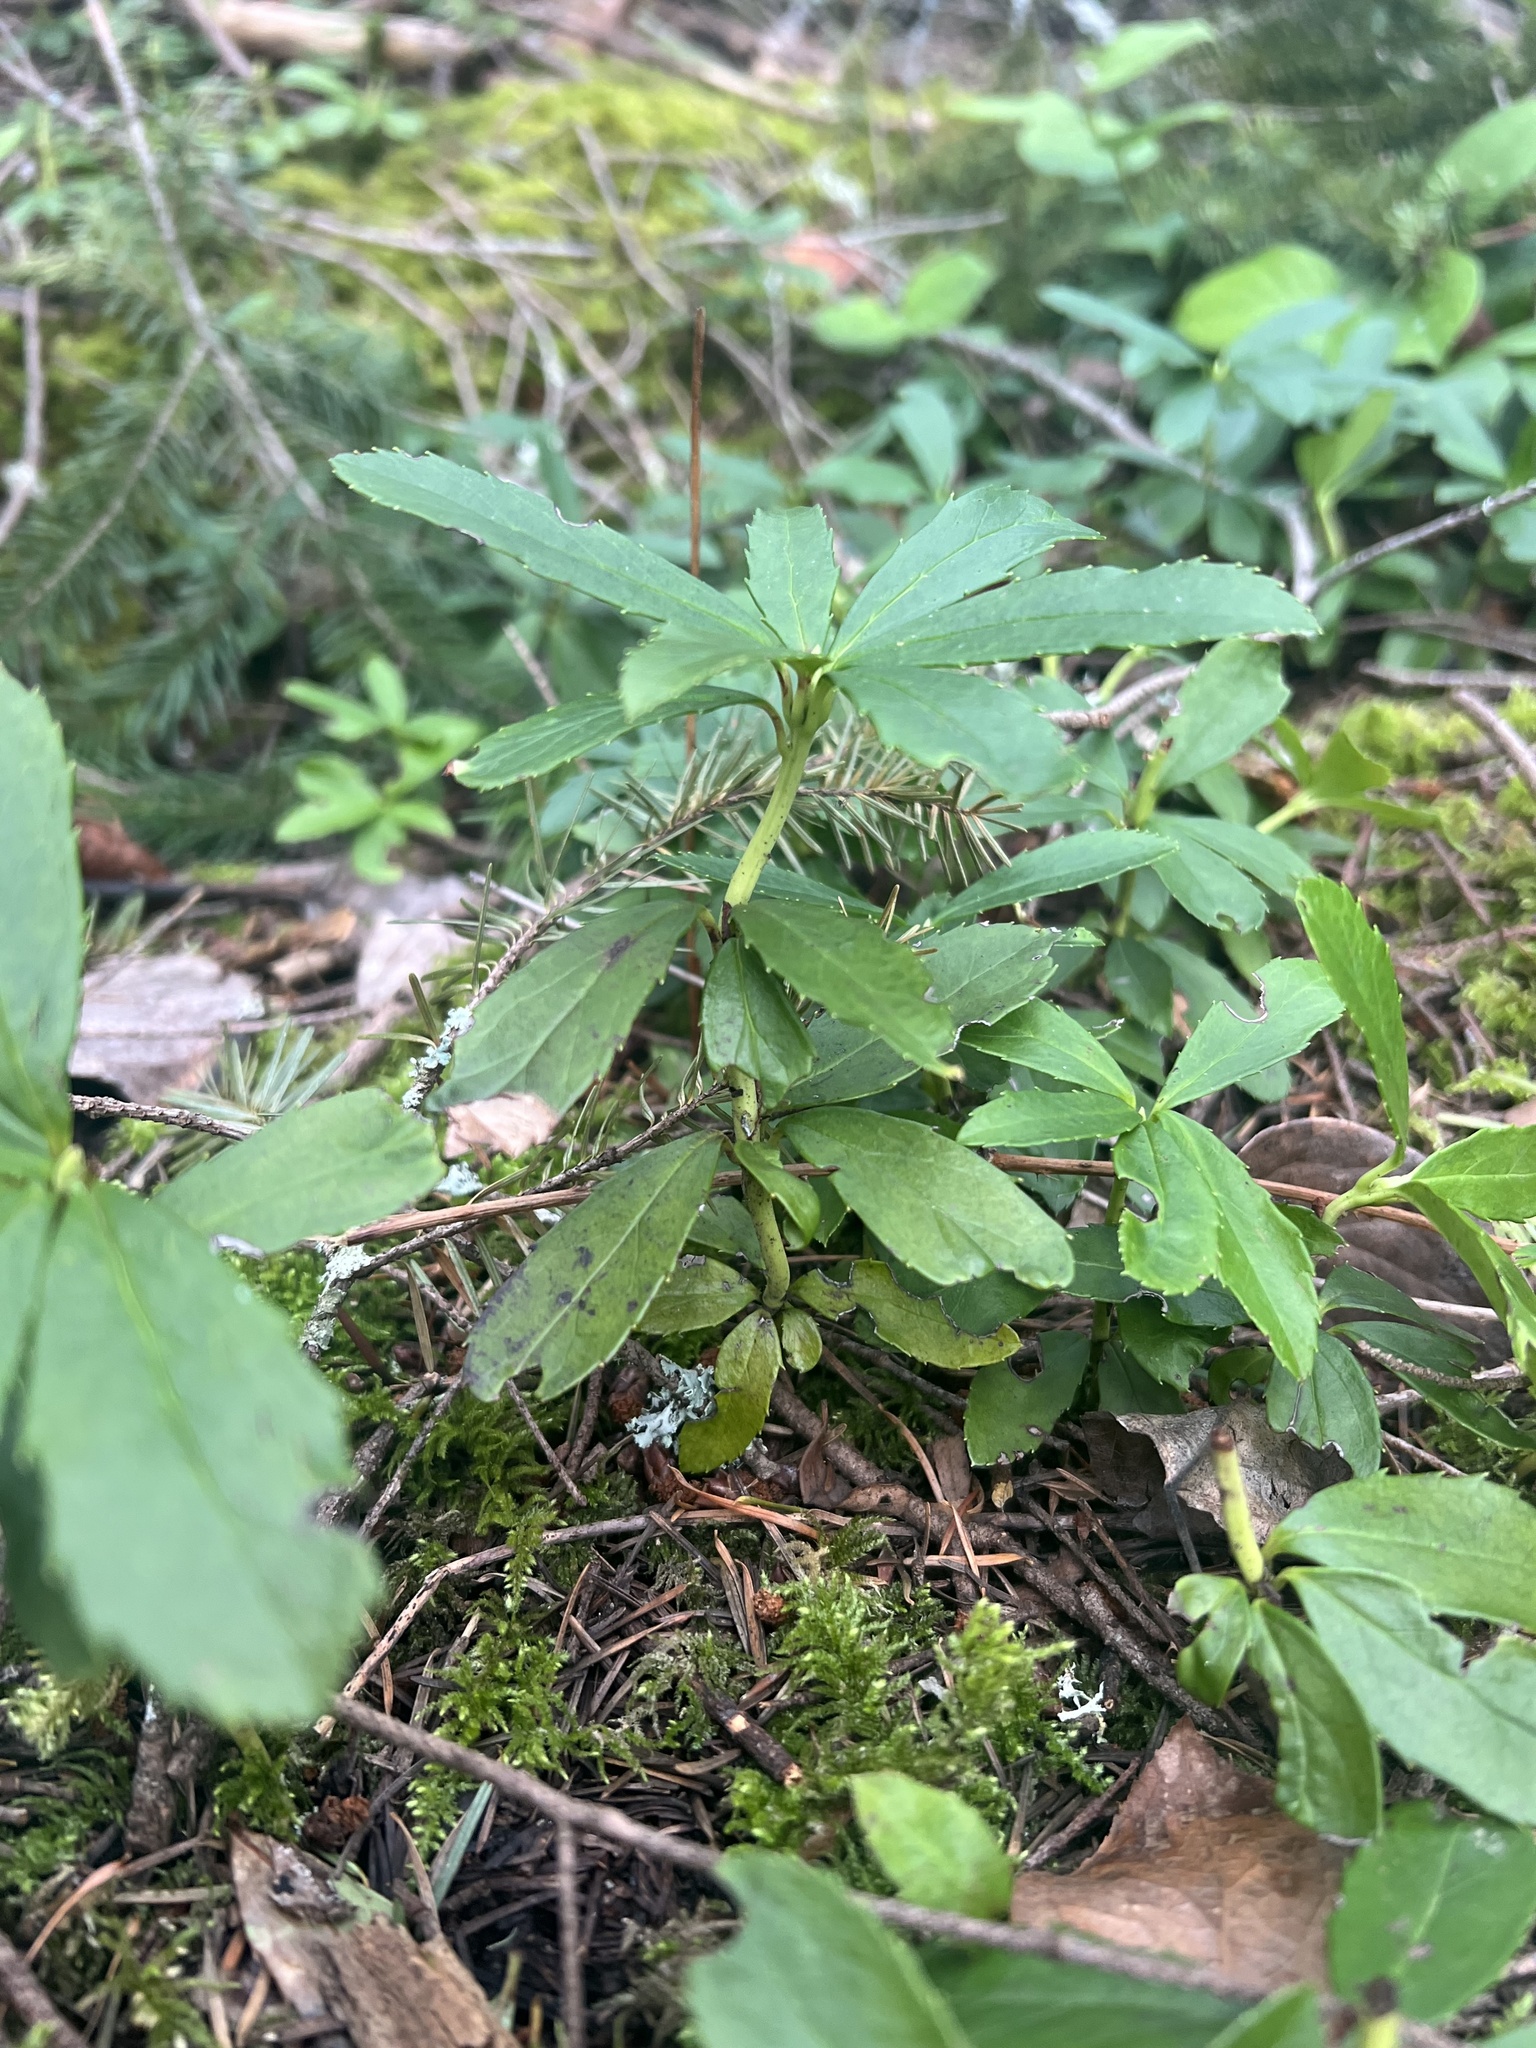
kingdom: Plantae
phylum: Tracheophyta
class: Magnoliopsida
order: Ericales
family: Ericaceae
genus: Chimaphila
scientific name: Chimaphila umbellata
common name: Pipsissewa
